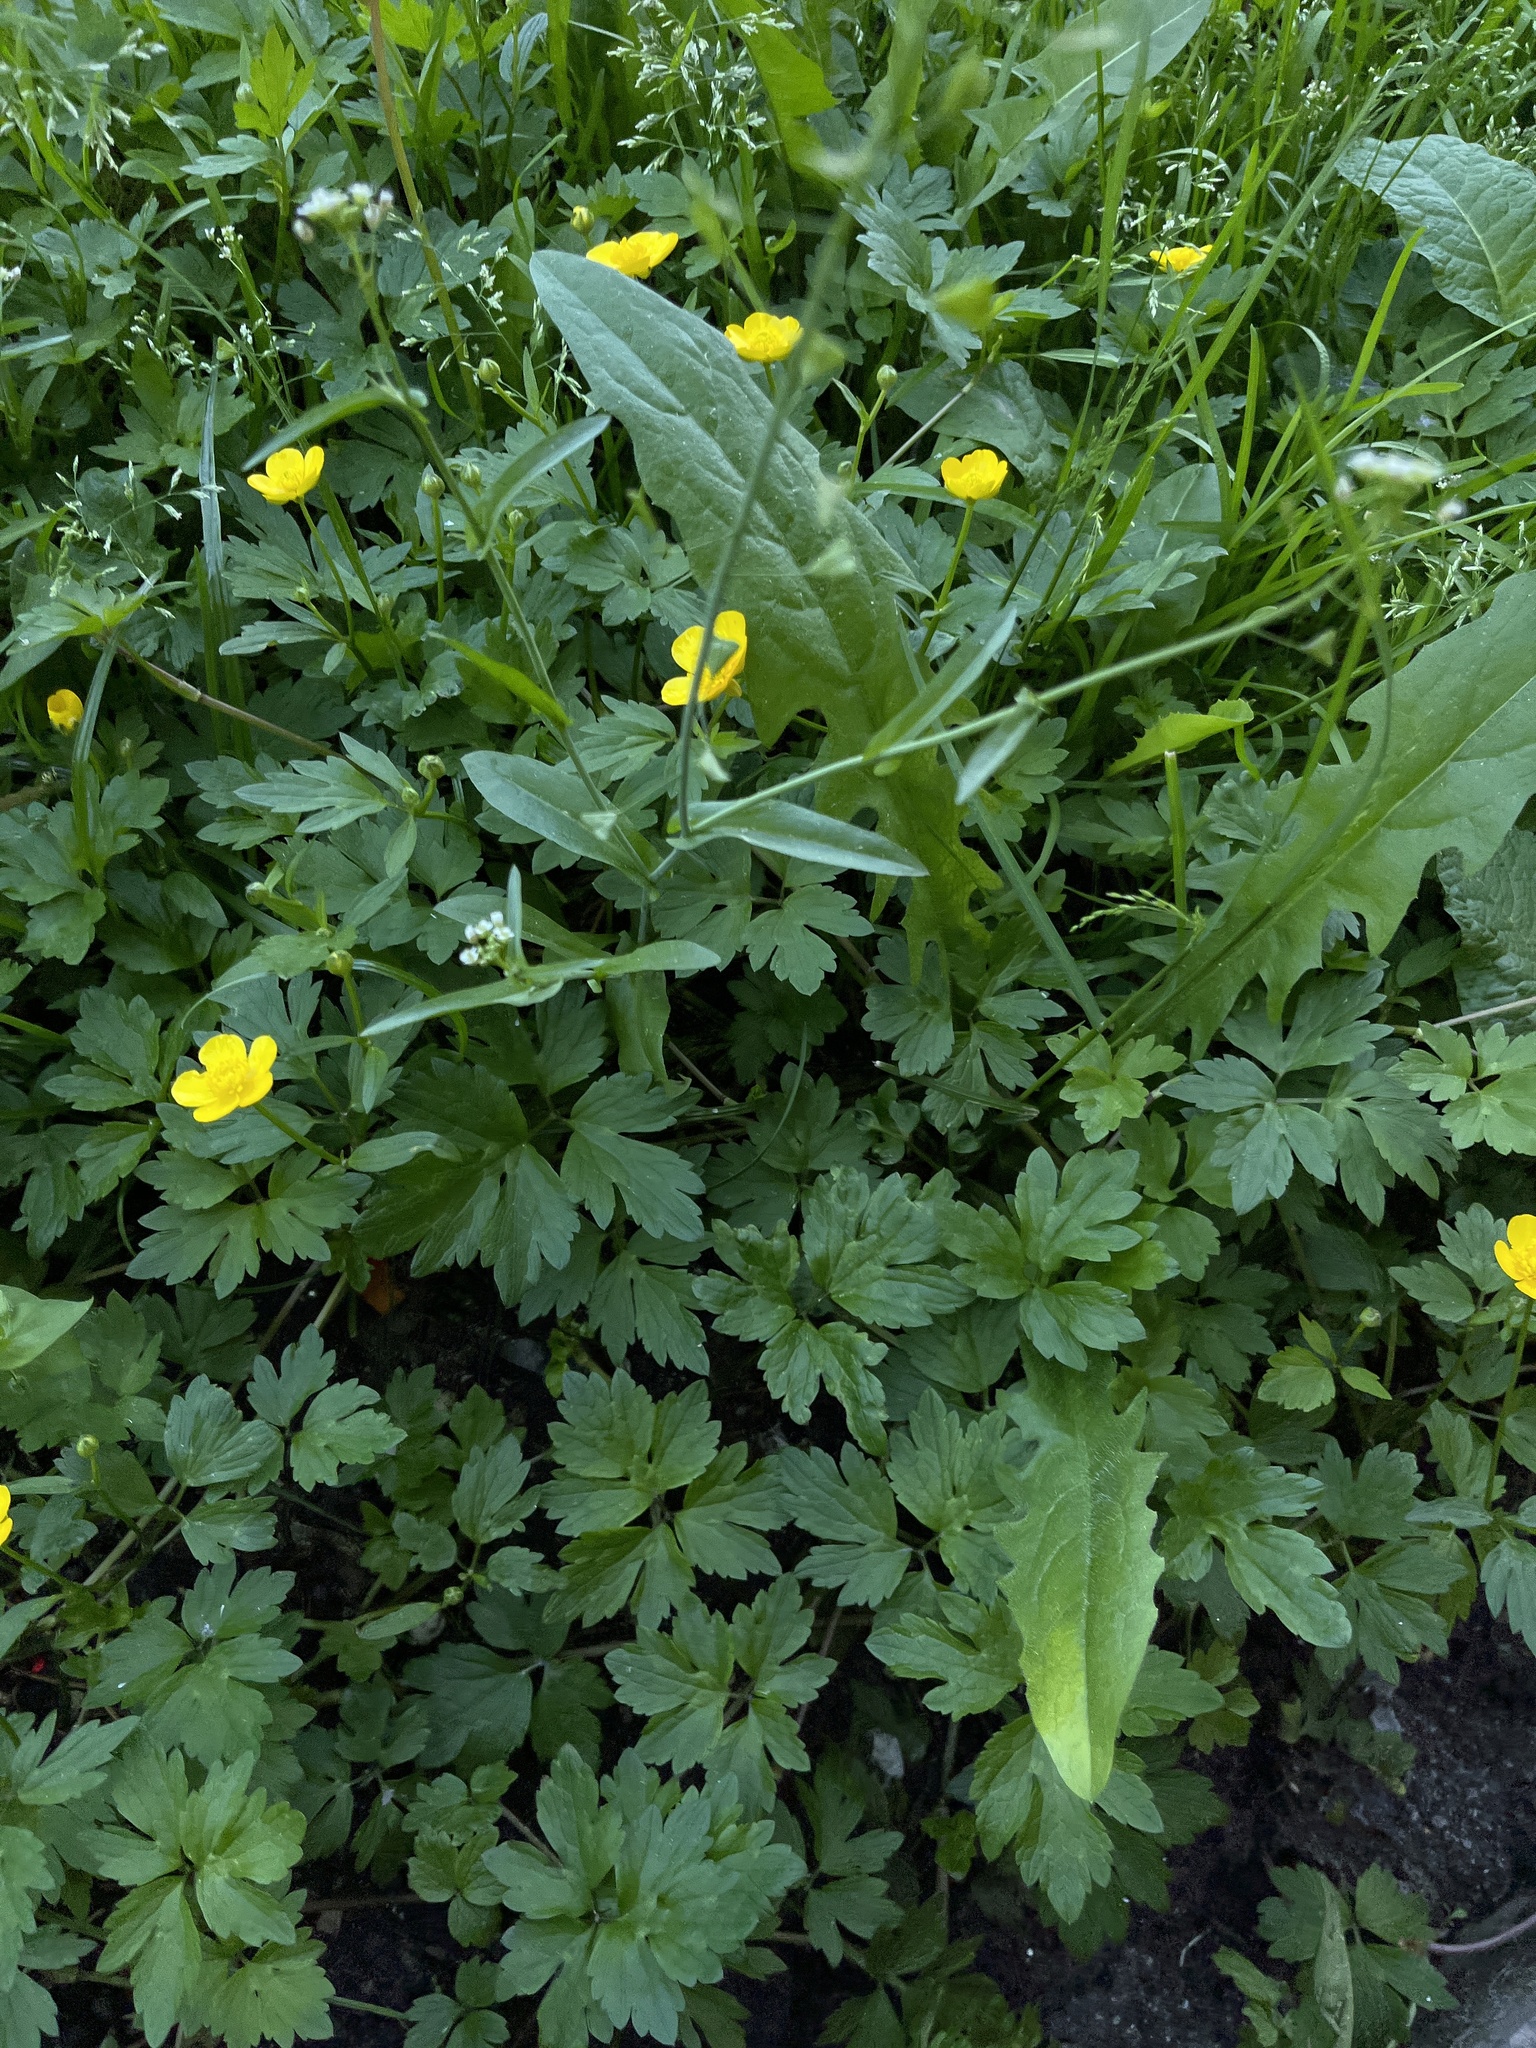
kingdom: Plantae
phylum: Tracheophyta
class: Magnoliopsida
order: Ranunculales
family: Ranunculaceae
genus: Ranunculus
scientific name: Ranunculus repens
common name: Creeping buttercup
